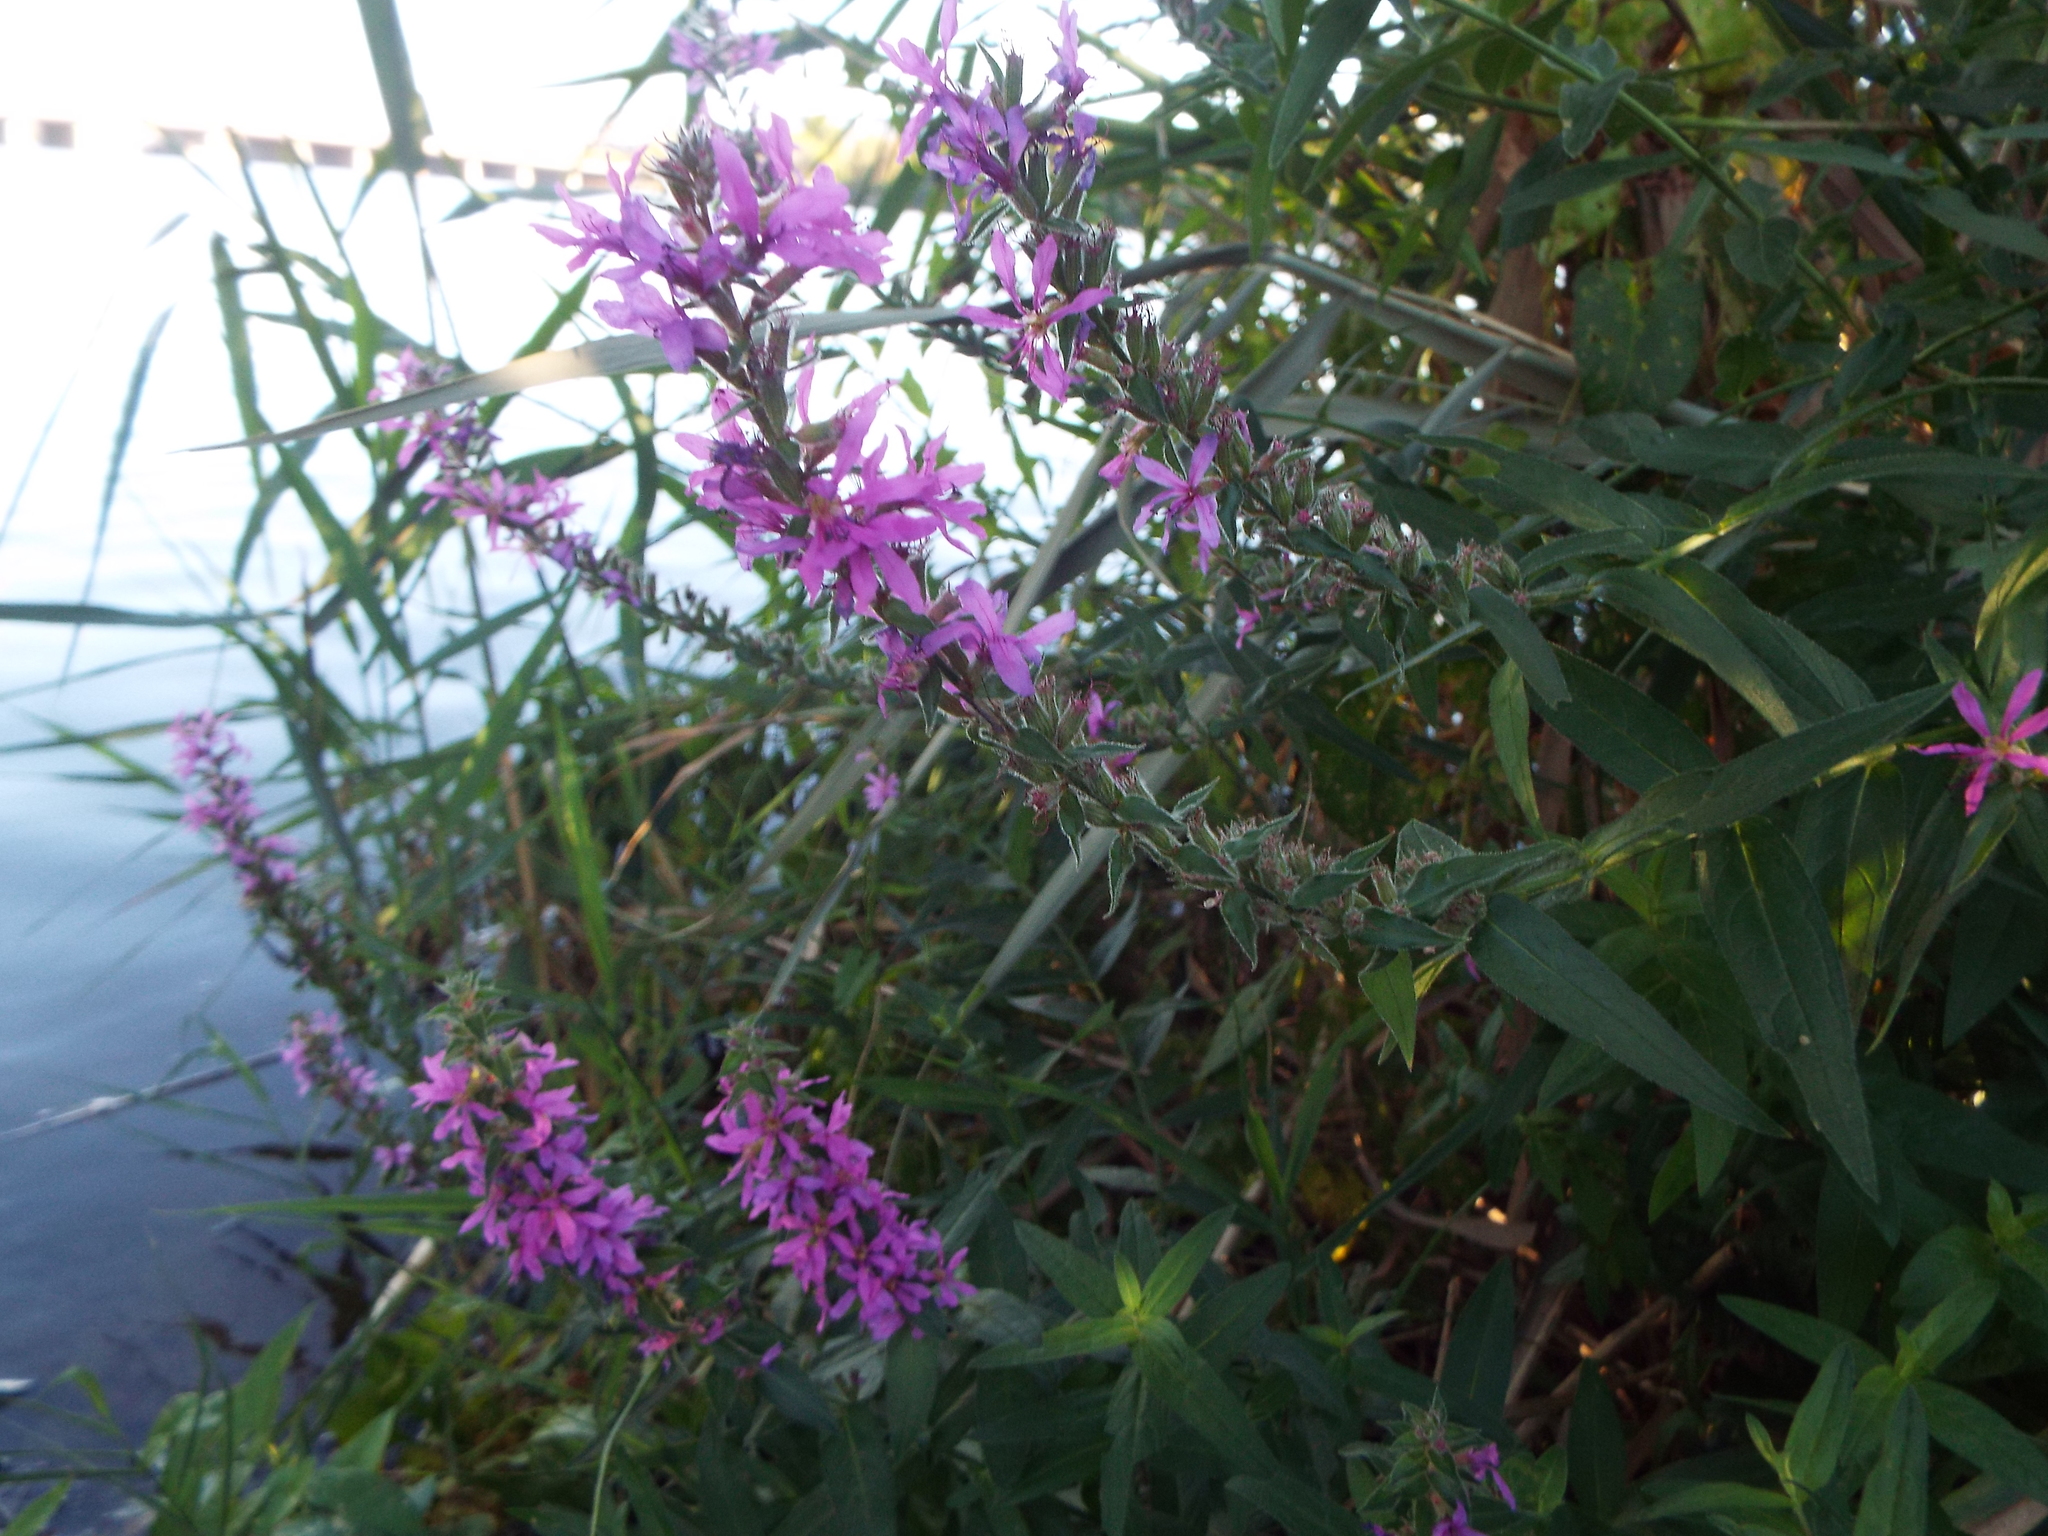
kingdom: Plantae
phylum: Tracheophyta
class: Magnoliopsida
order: Myrtales
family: Lythraceae
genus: Lythrum
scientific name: Lythrum salicaria
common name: Purple loosestrife
